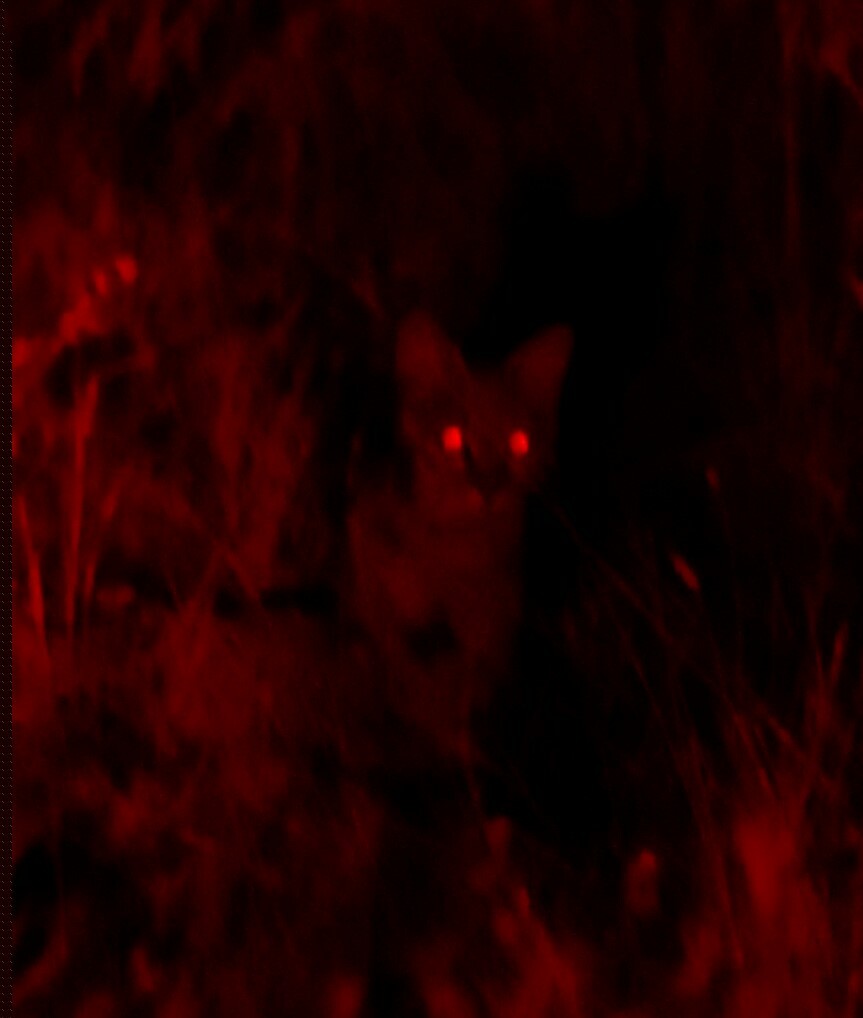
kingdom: Animalia
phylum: Chordata
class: Mammalia
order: Carnivora
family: Felidae
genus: Felis
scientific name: Felis silvestris
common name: Wildcat
